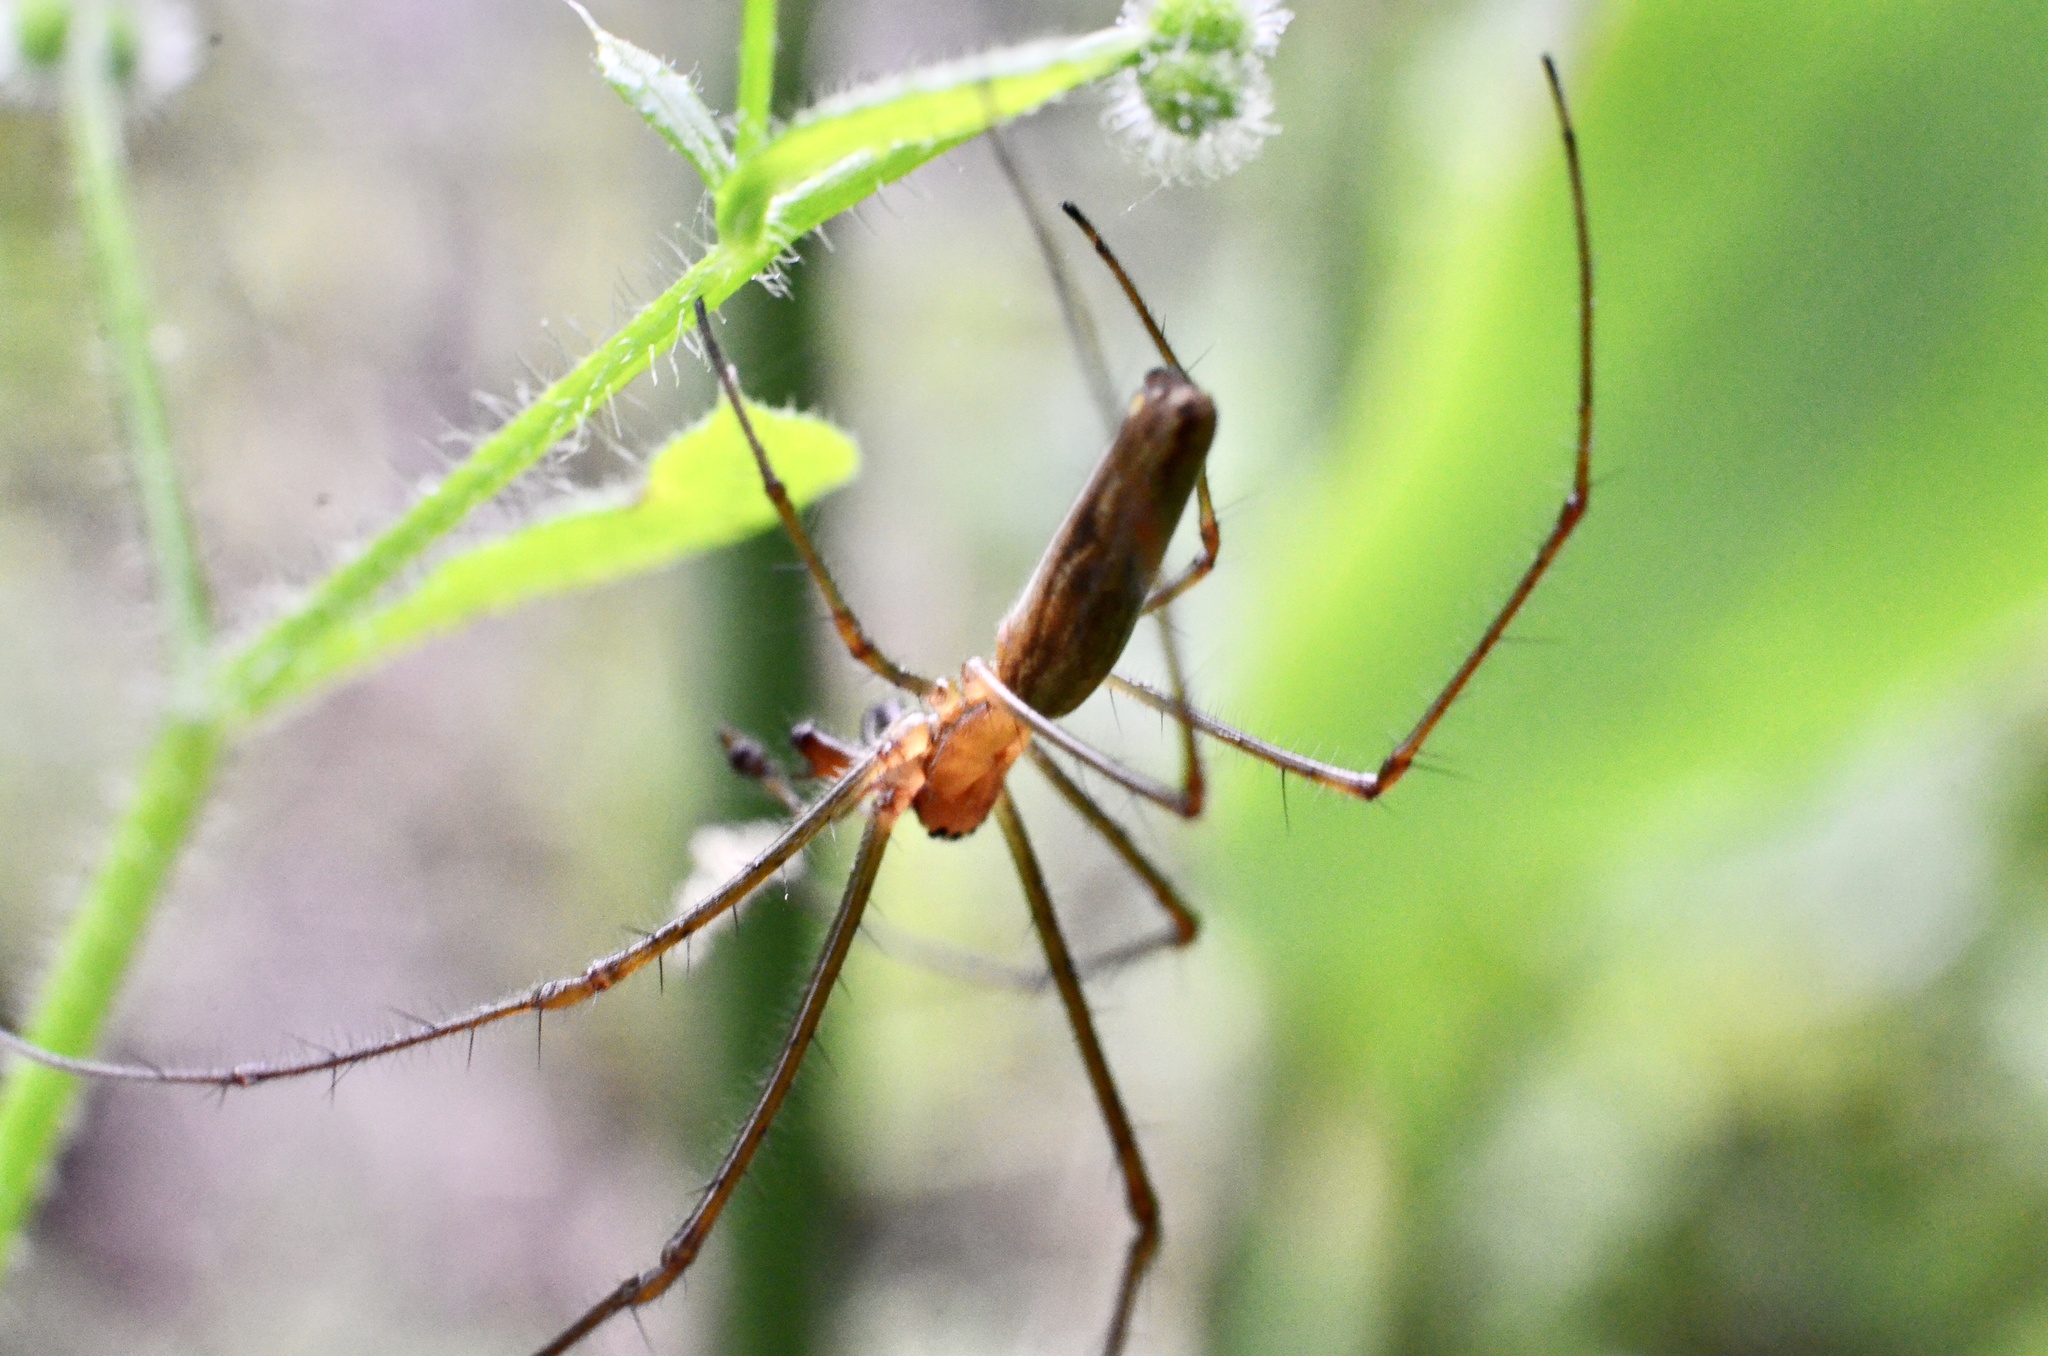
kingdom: Animalia
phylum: Arthropoda
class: Arachnida
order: Araneae
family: Tetragnathidae
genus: Tetragnatha
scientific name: Tetragnatha
